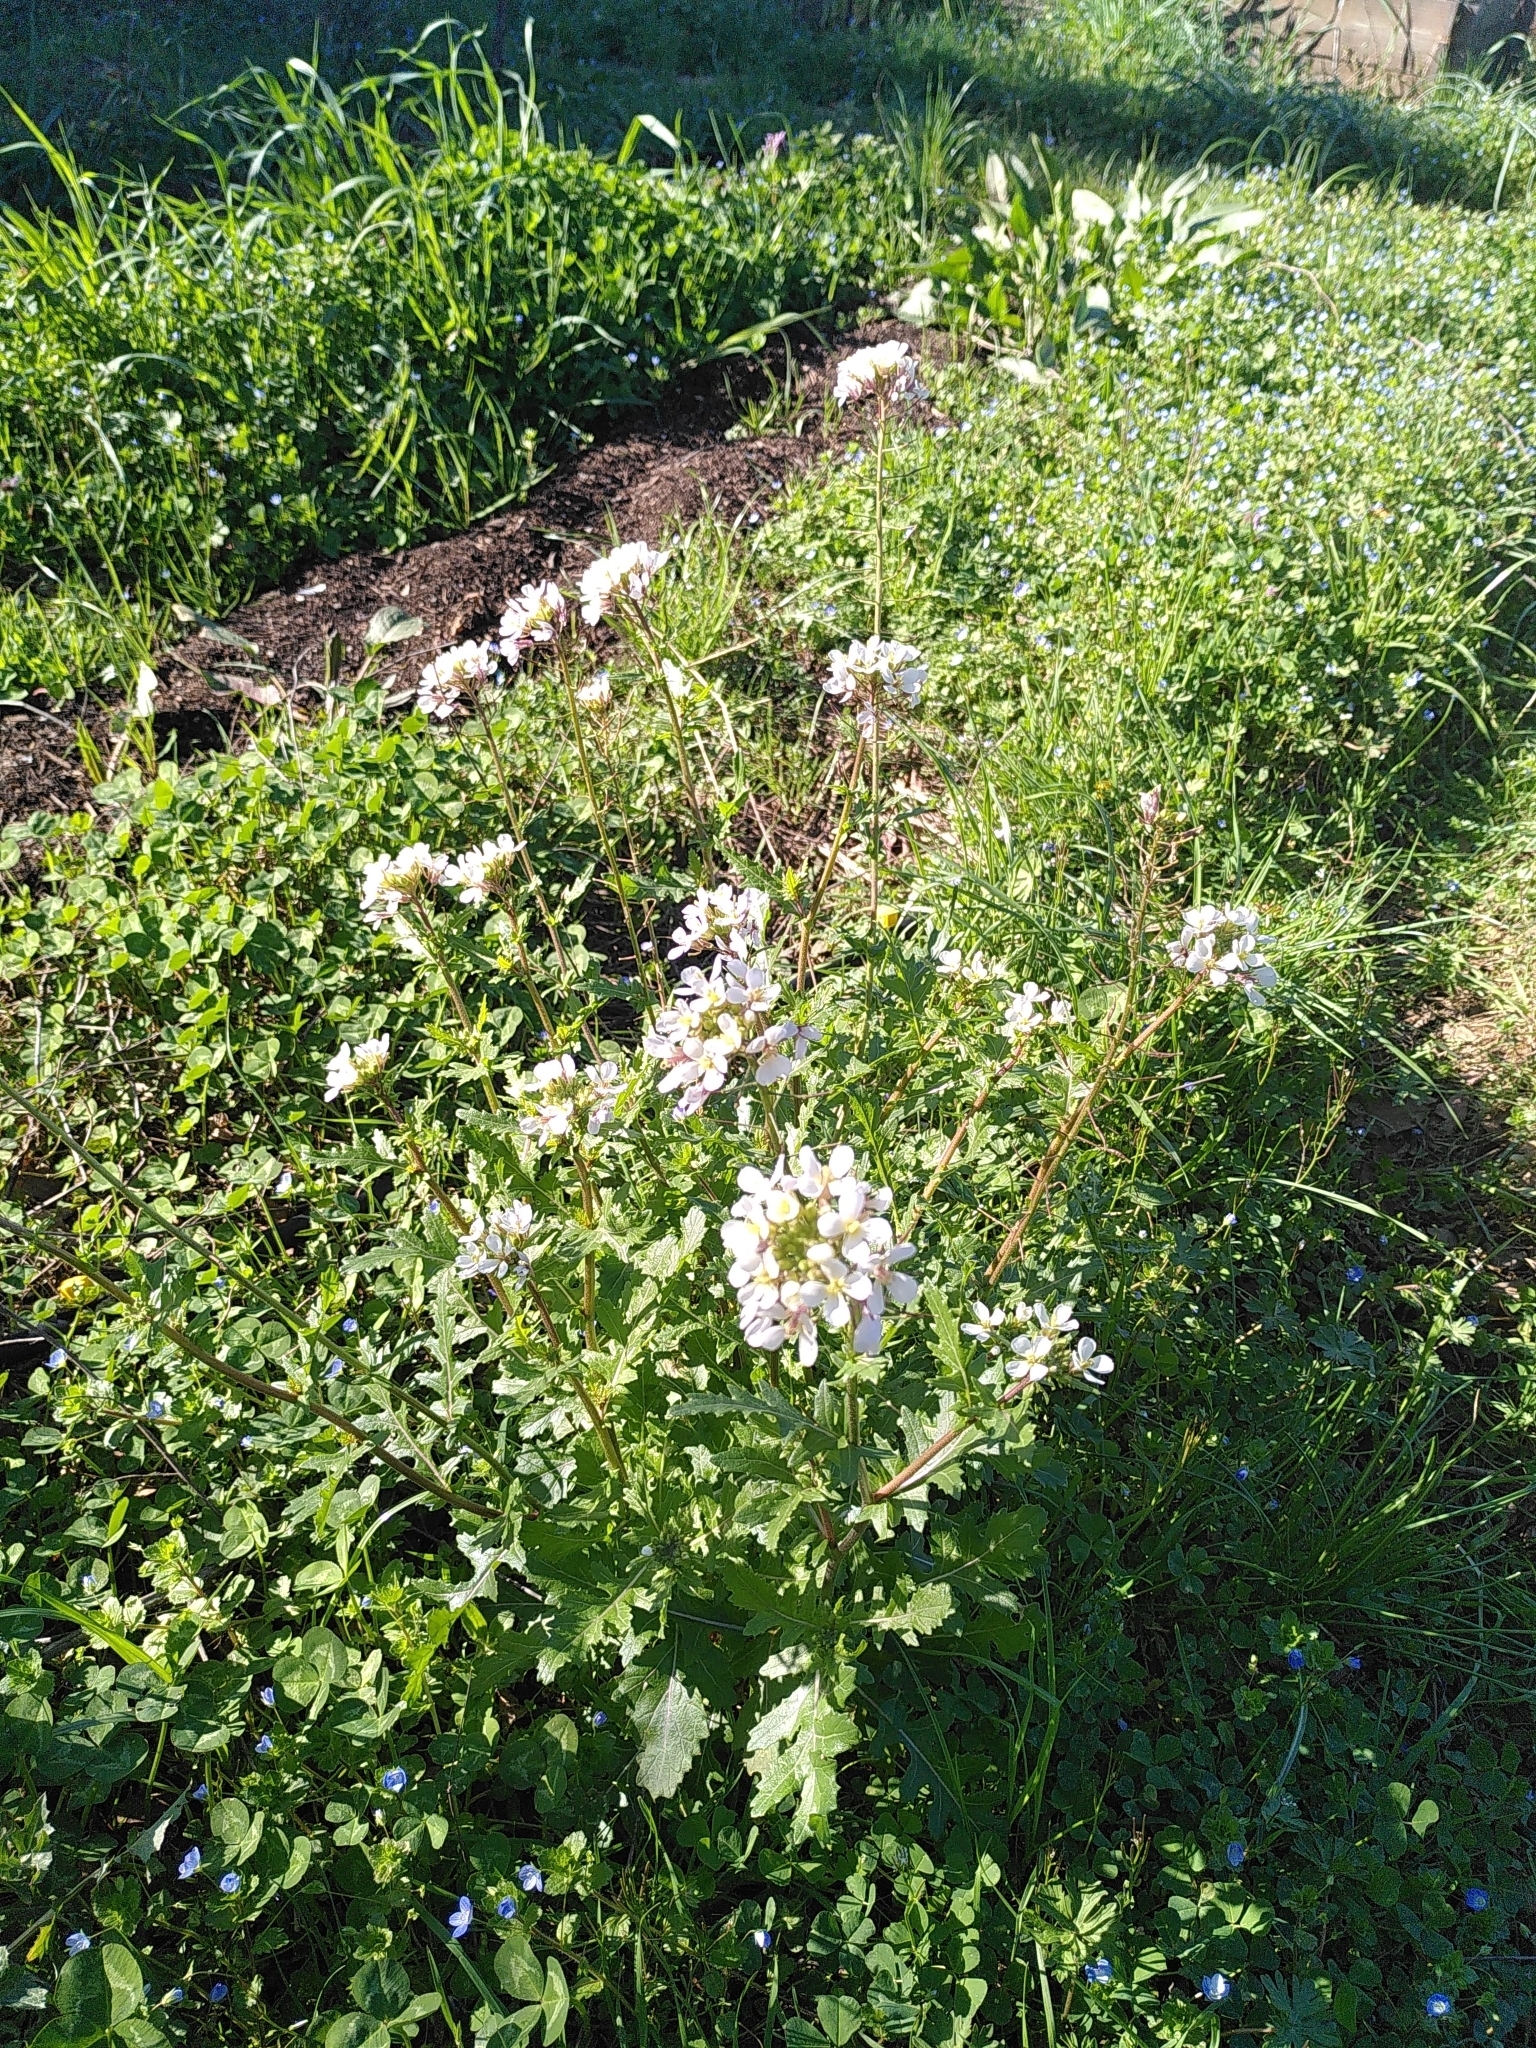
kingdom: Plantae
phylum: Tracheophyta
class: Magnoliopsida
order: Brassicales
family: Brassicaceae
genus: Diplotaxis
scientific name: Diplotaxis erucoides
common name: White rocket
